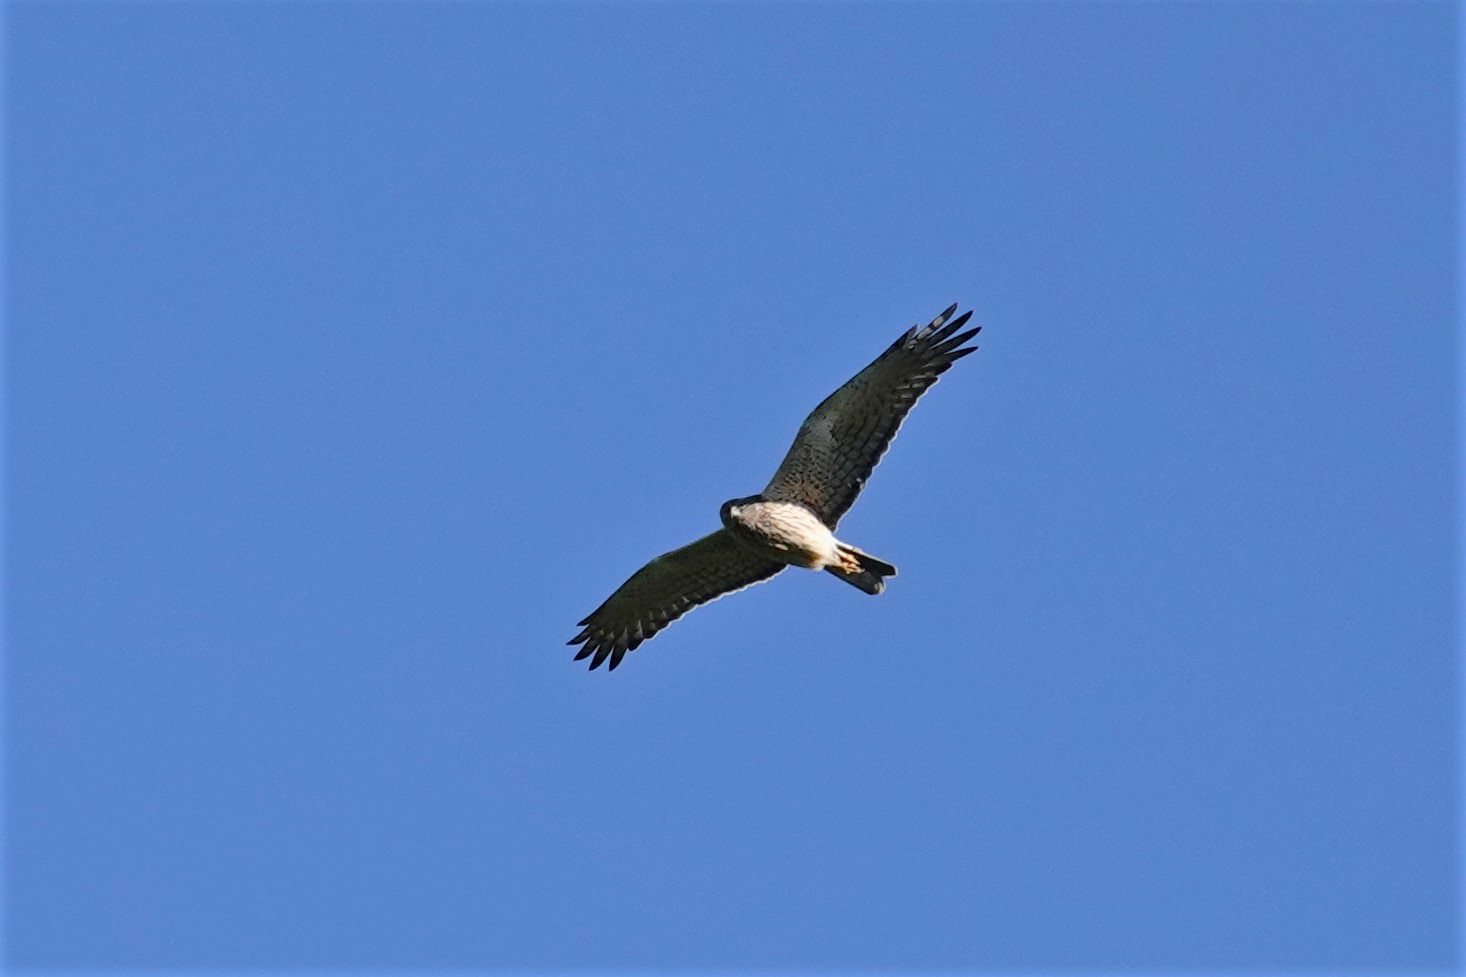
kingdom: Animalia
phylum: Chordata
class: Aves
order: Accipitriformes
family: Accipitridae
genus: Circus
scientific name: Circus approximans
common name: Swamp harrier
